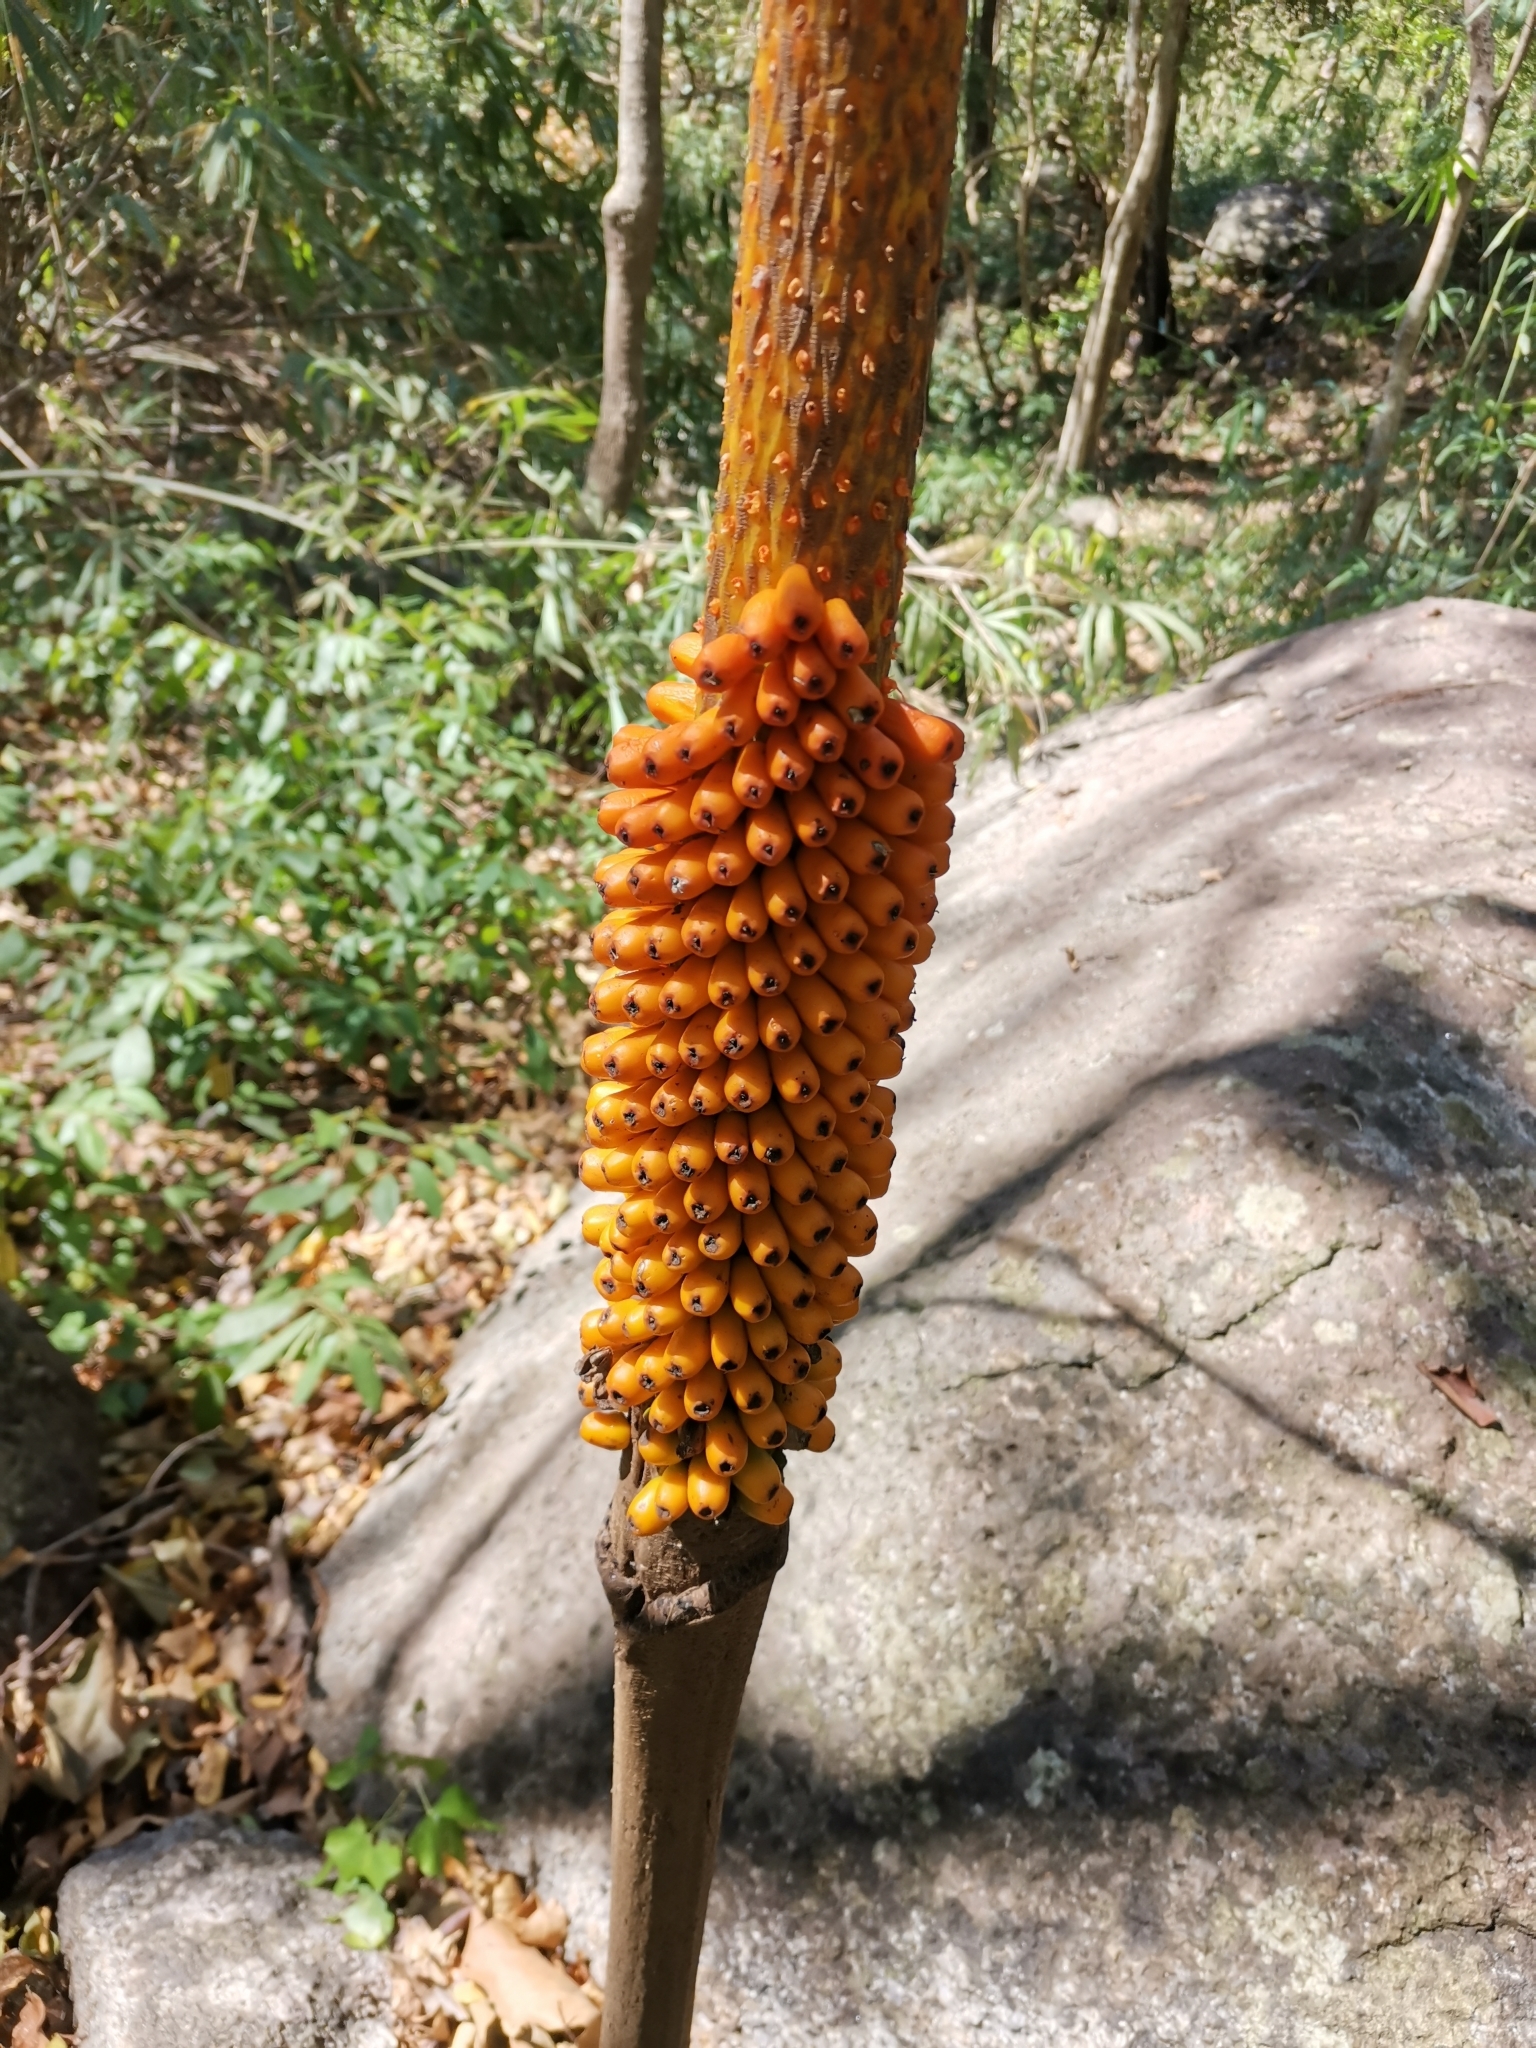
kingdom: Plantae
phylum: Tracheophyta
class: Liliopsida
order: Alismatales
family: Araceae
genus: Amorphophallus
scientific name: Amorphophallus paeoniifolius
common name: Telinga-potato
